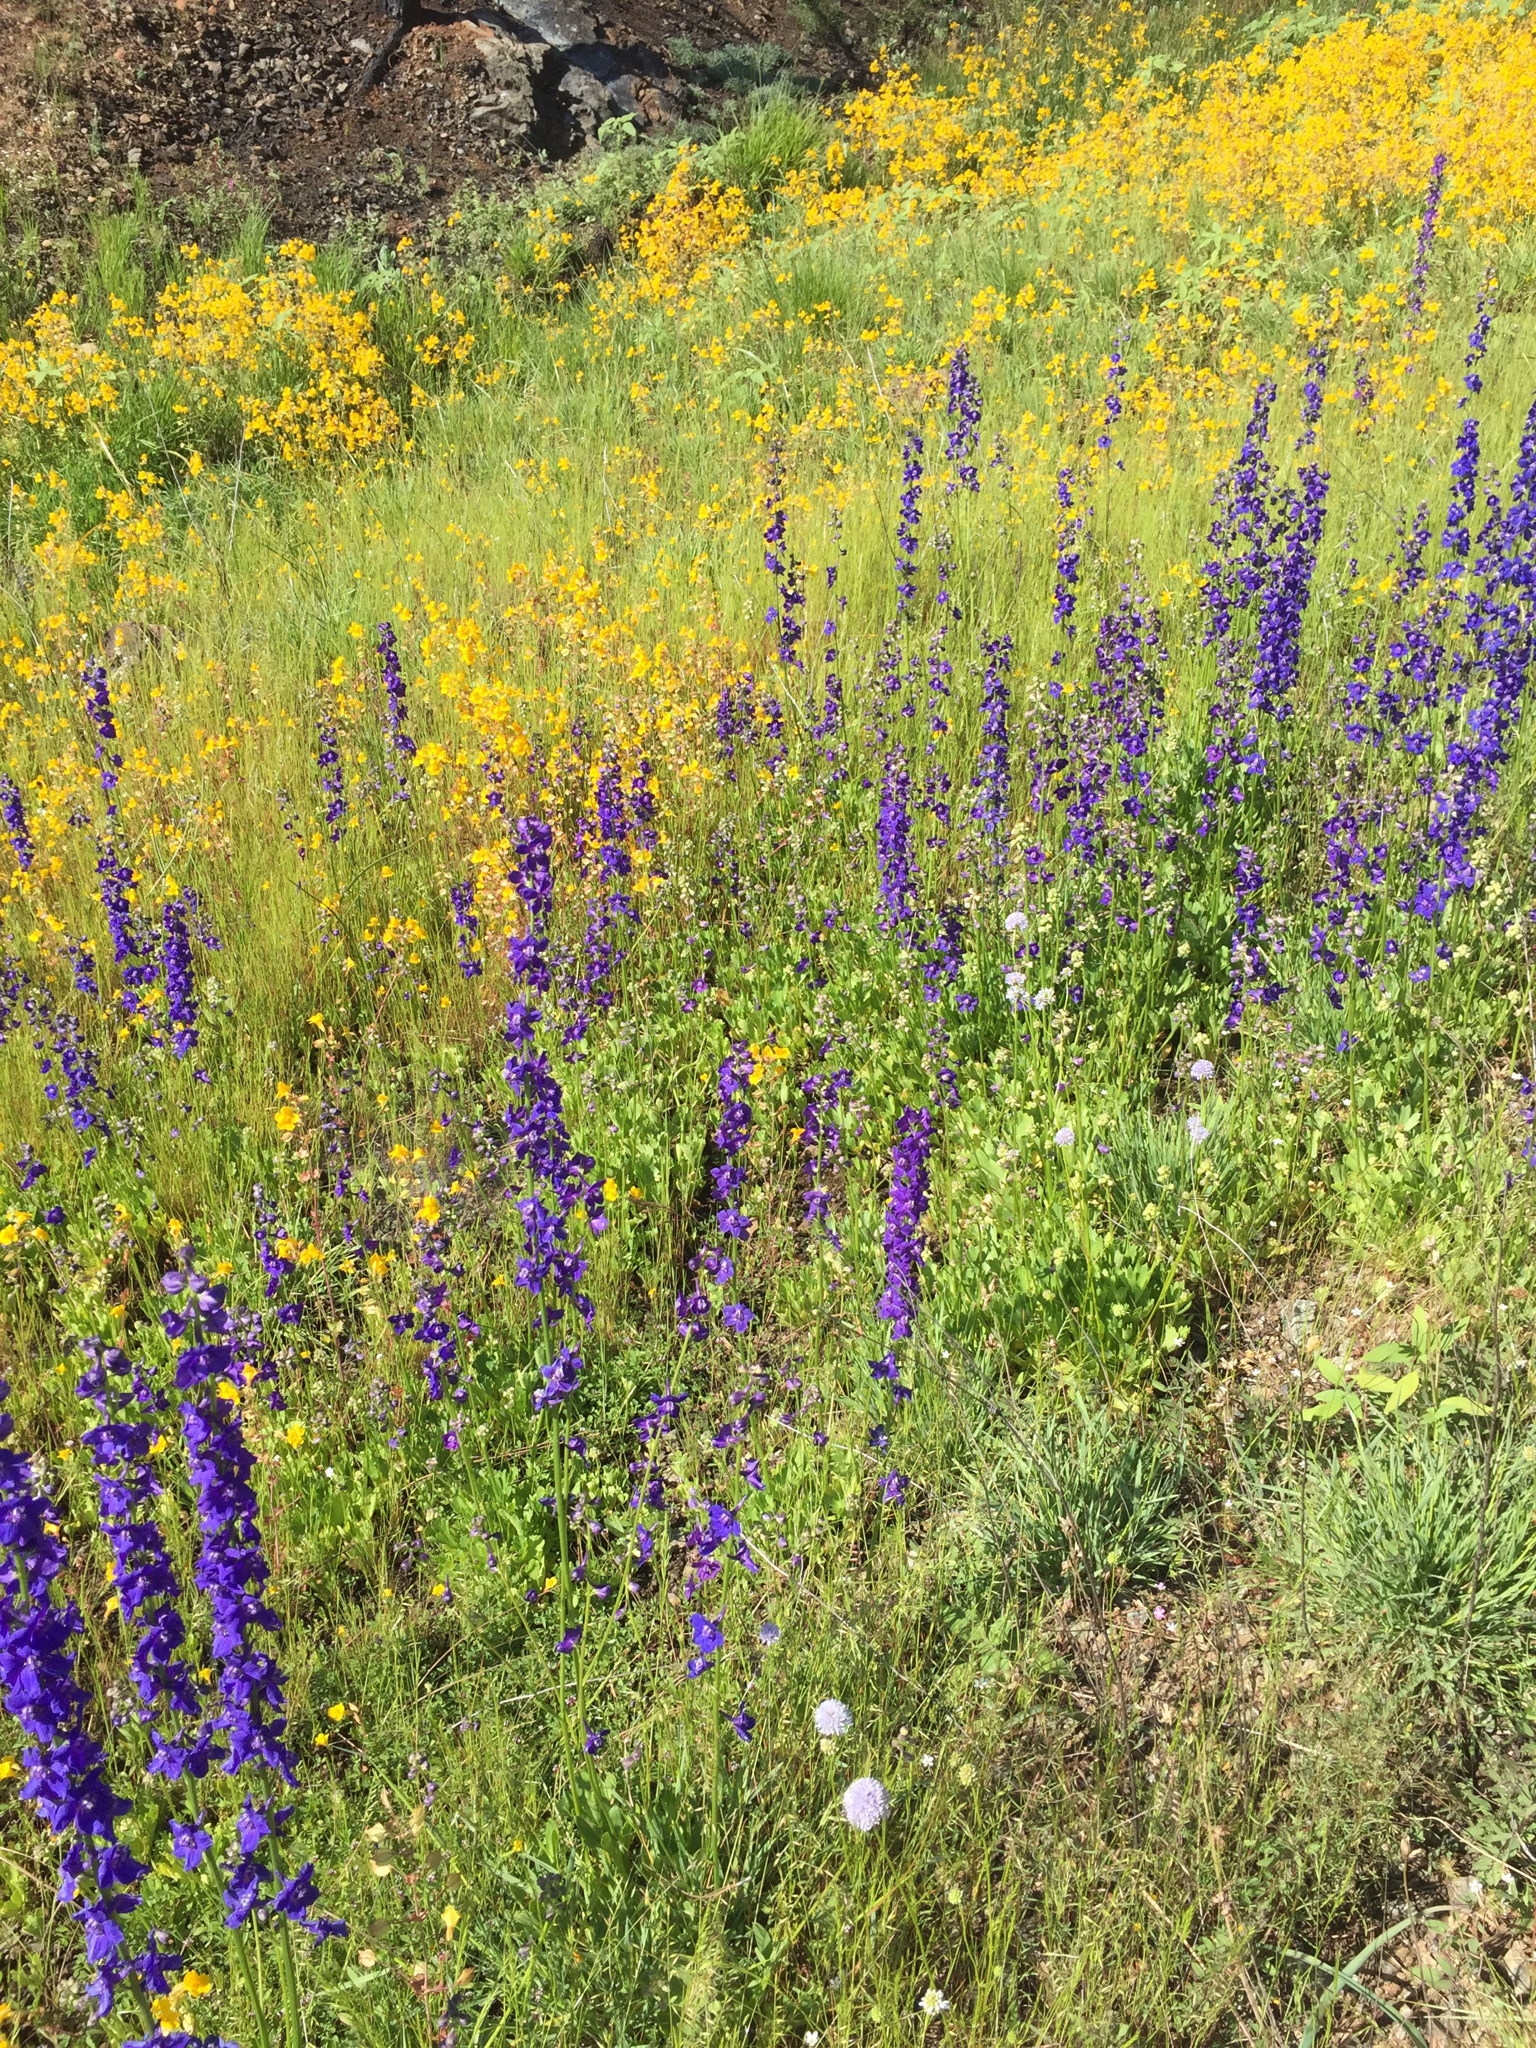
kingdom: Plantae
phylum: Tracheophyta
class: Magnoliopsida
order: Ranunculales
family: Ranunculaceae
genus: Delphinium
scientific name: Delphinium uliginosum
